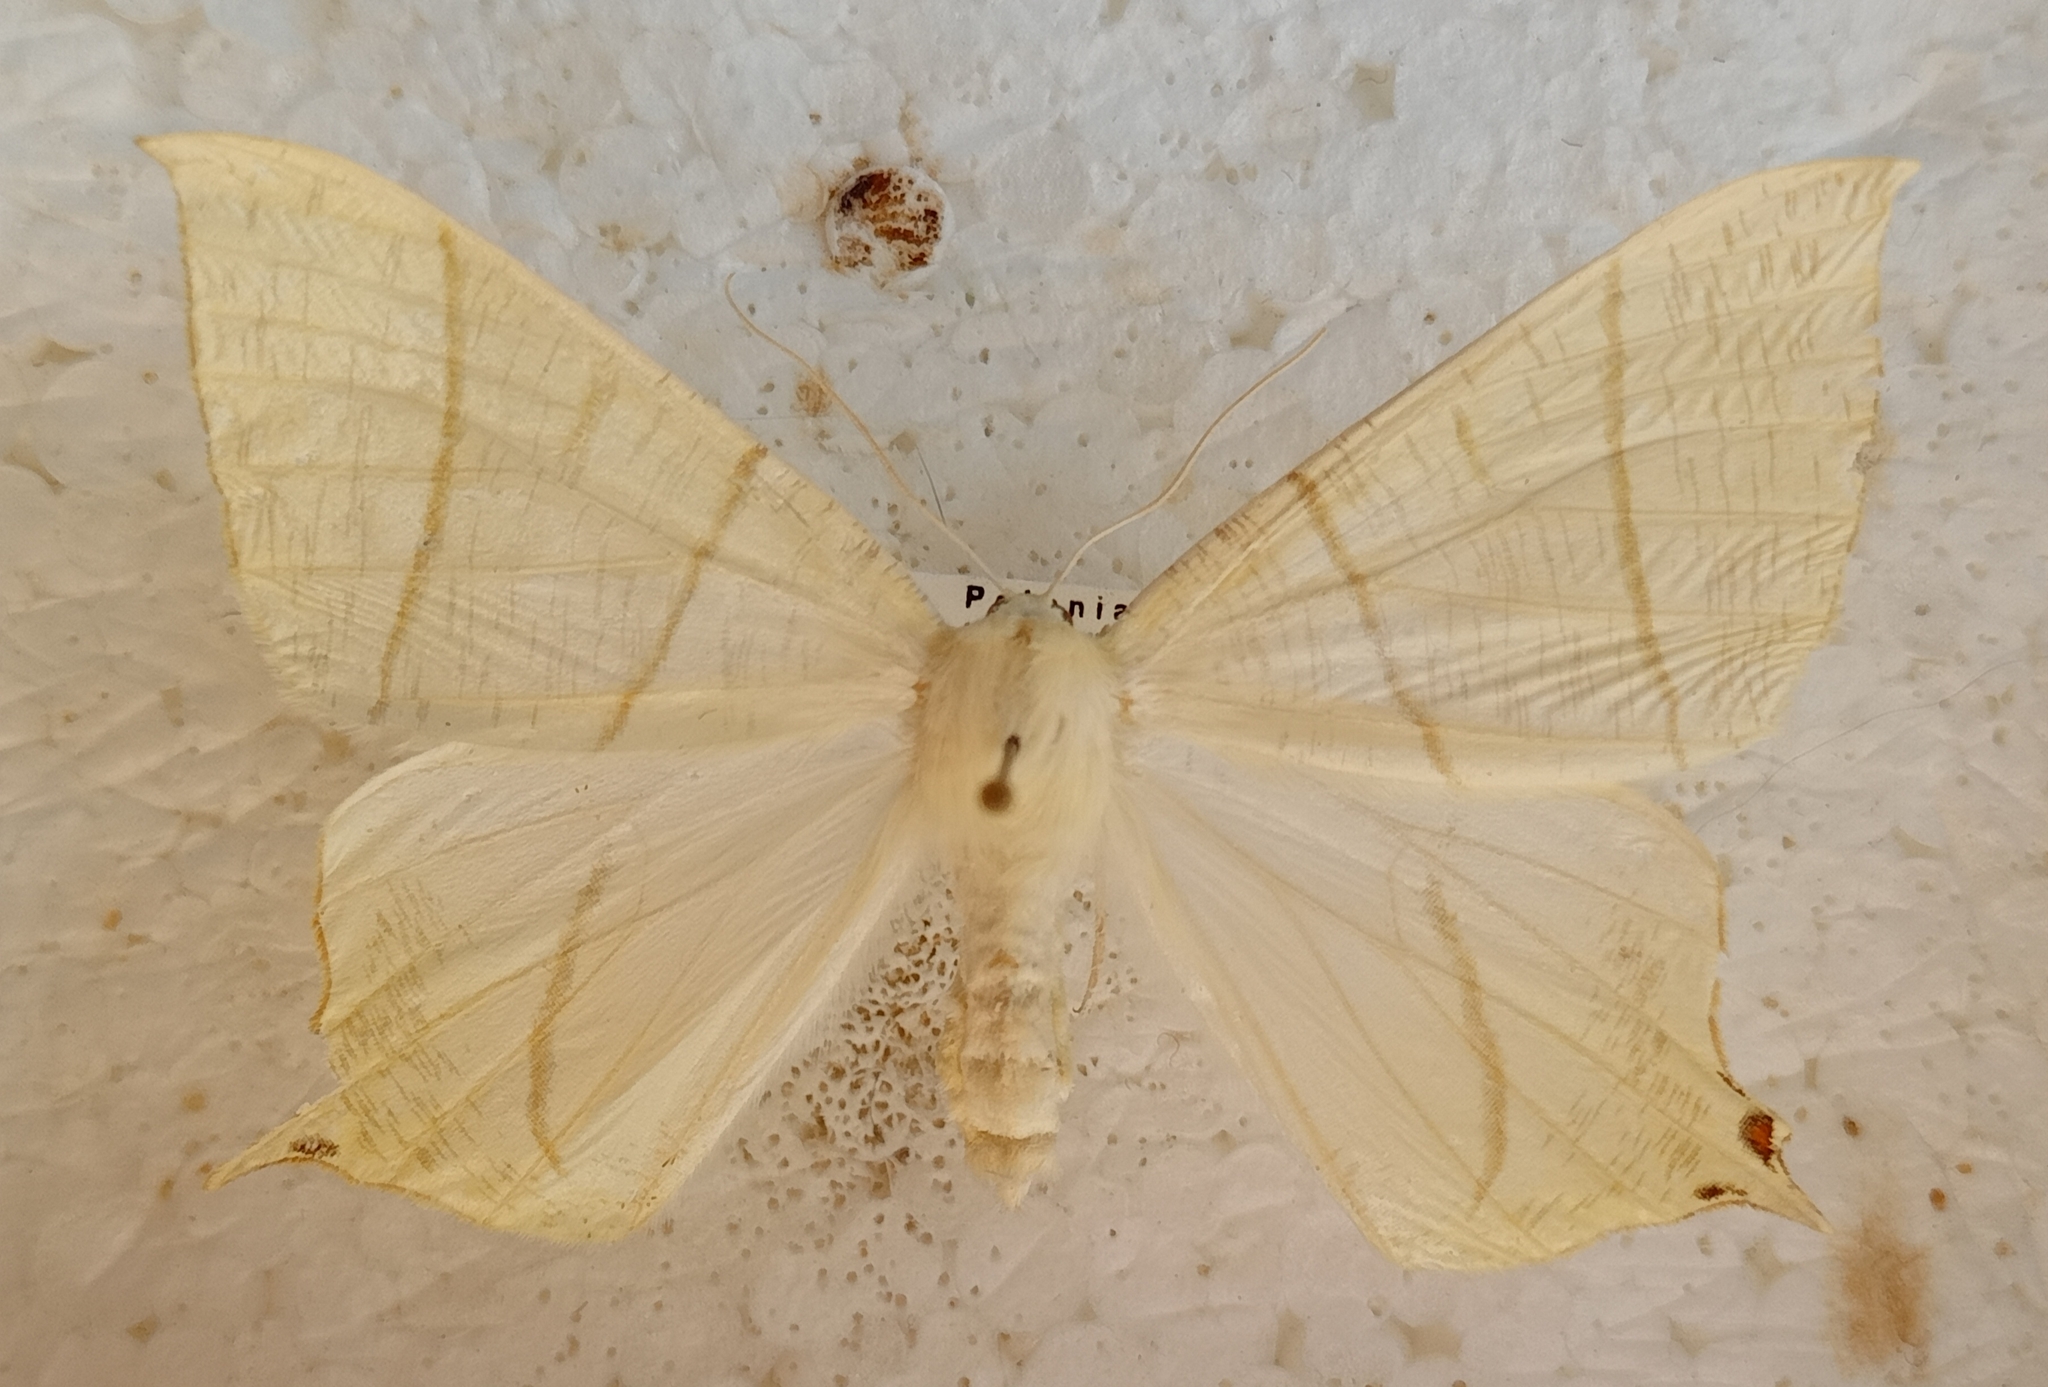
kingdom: Animalia
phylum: Arthropoda
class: Insecta
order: Lepidoptera
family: Geometridae
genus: Ourapteryx
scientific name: Ourapteryx sambucaria
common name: Swallow-tailed moth
